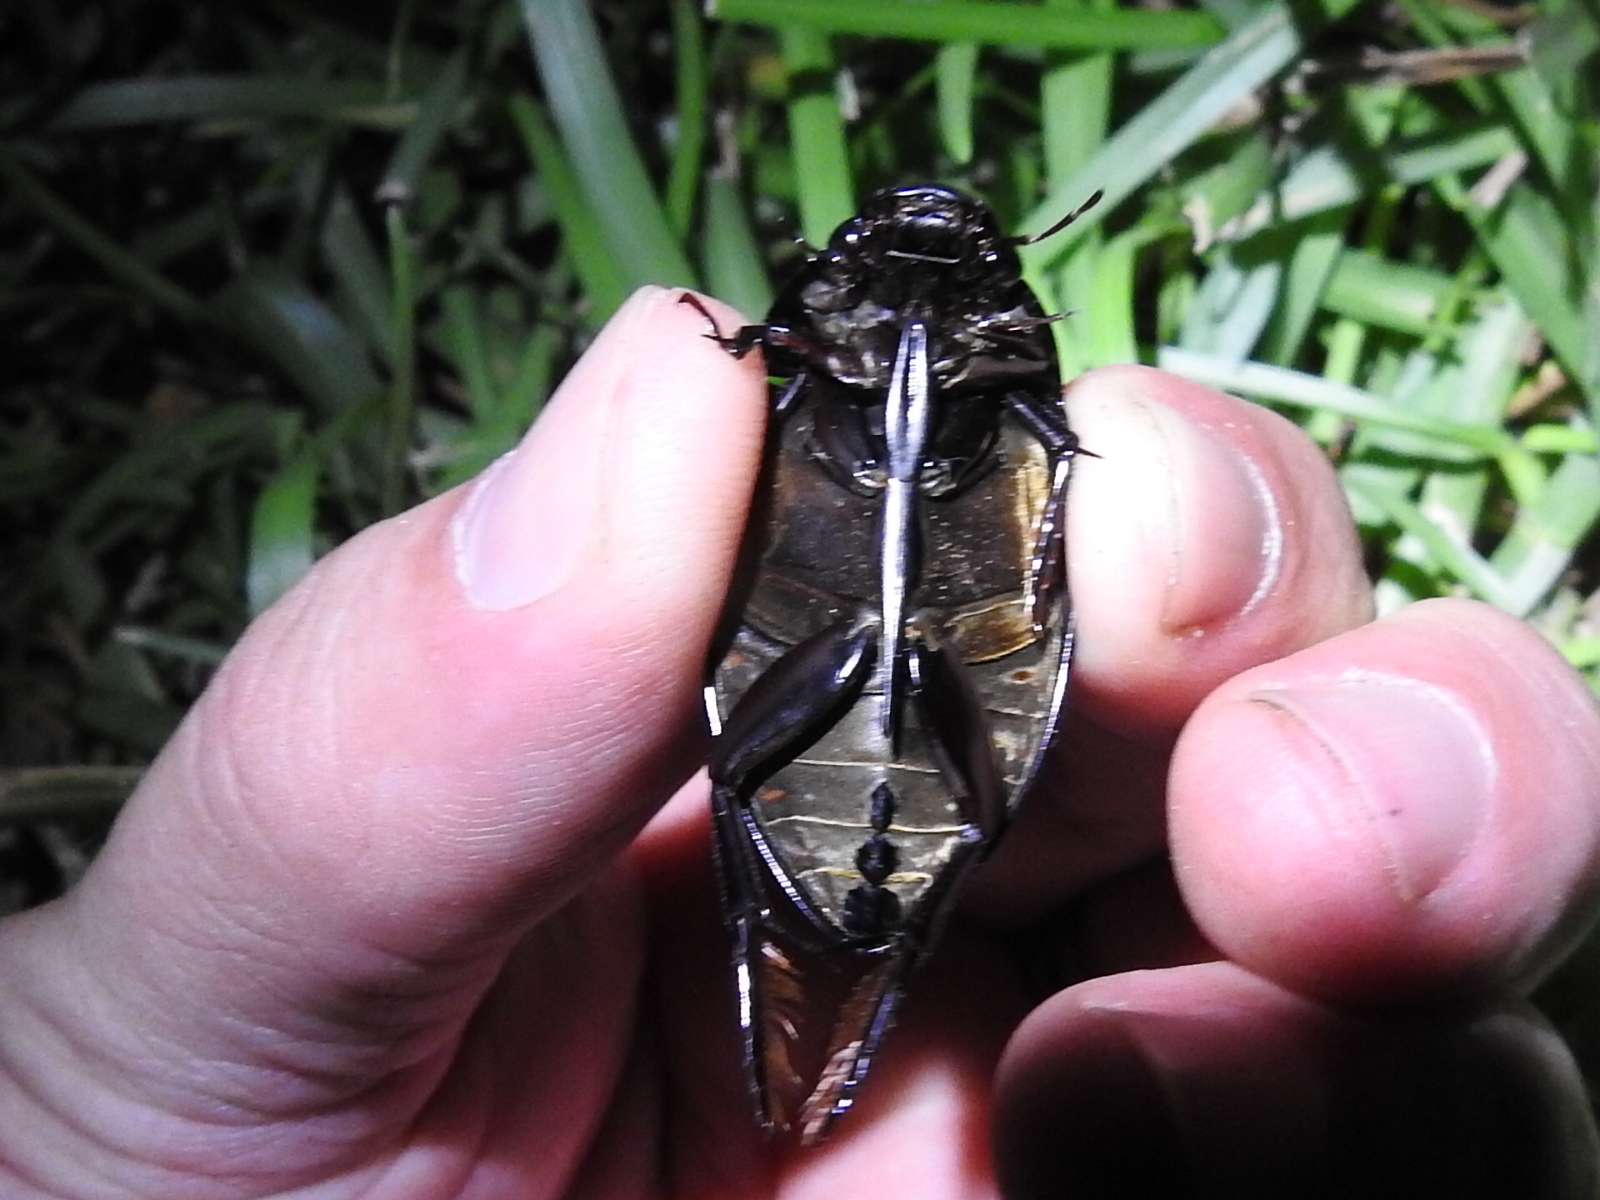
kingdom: Animalia
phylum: Arthropoda
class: Insecta
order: Coleoptera
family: Hydrophilidae
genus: Hydrophilus
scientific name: Hydrophilus ovatus
